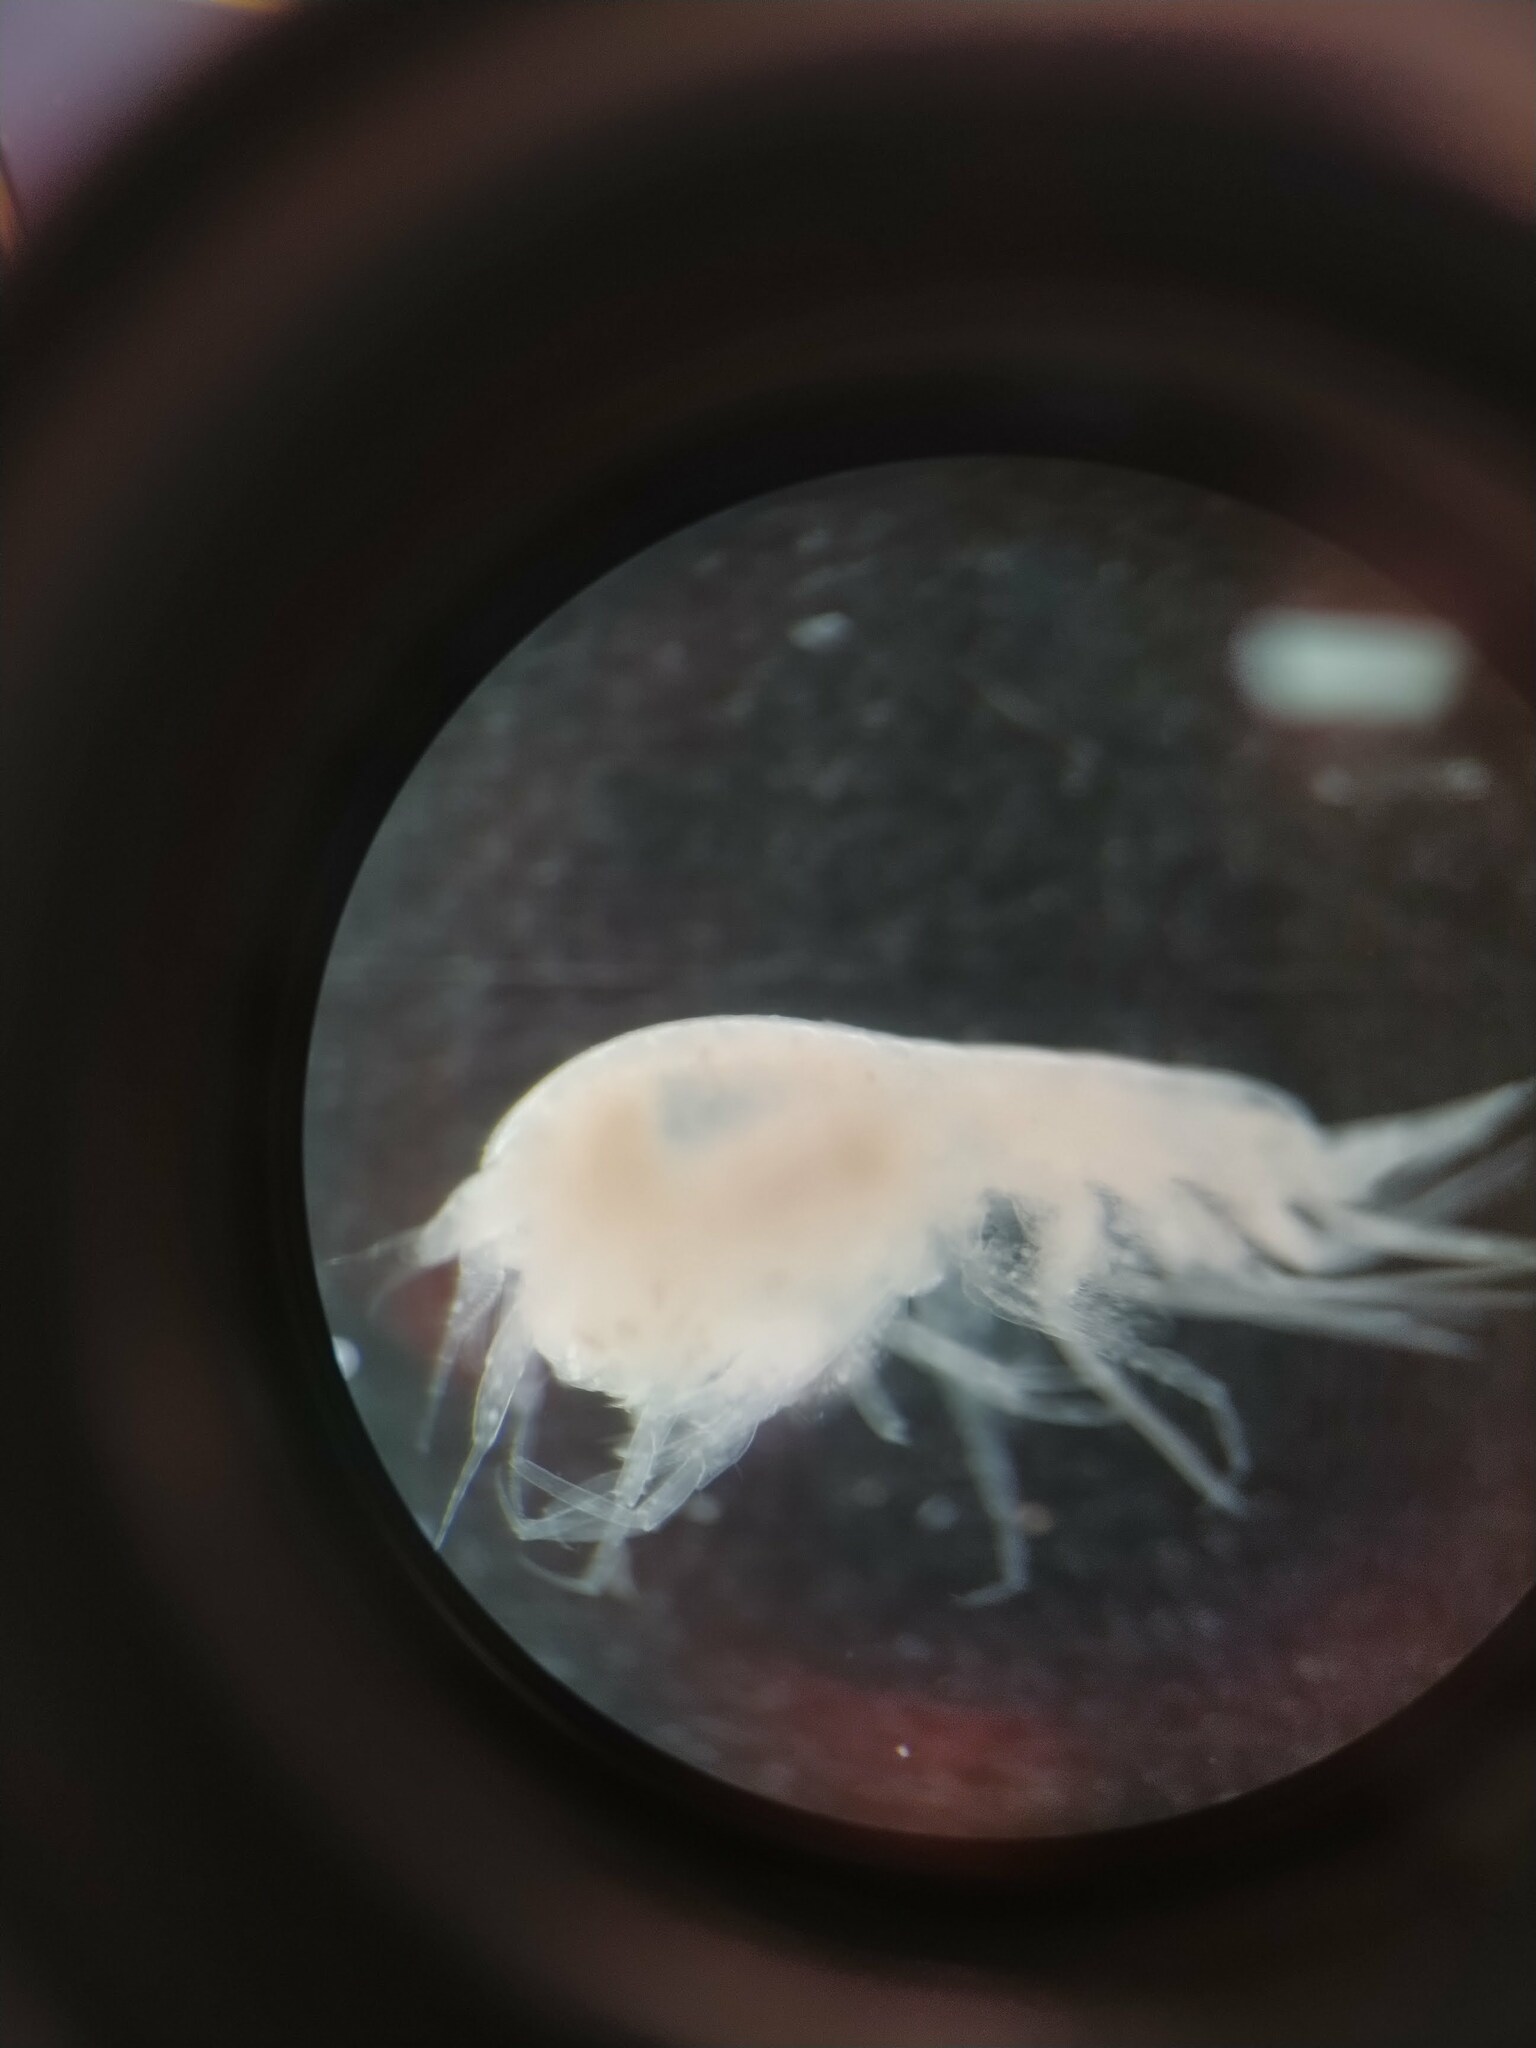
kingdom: Animalia
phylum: Arthropoda
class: Malacostraca
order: Amphipoda
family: Stegocephalidae
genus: Andaniexis
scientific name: Andaniexis abyssi
